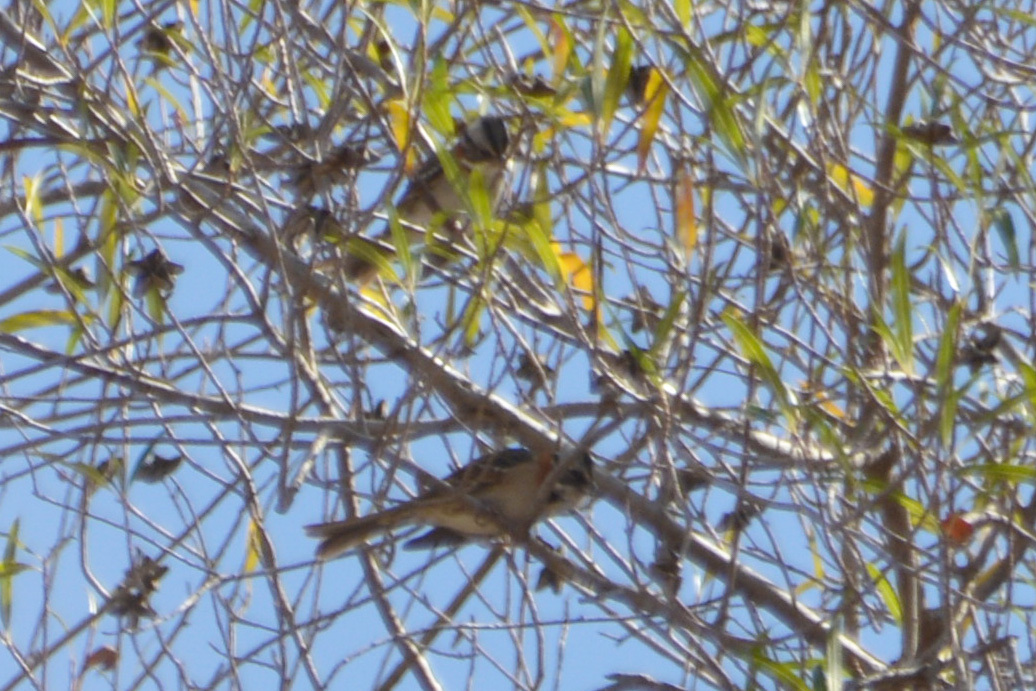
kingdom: Animalia
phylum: Chordata
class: Aves
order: Passeriformes
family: Passerellidae
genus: Zonotrichia
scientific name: Zonotrichia capensis
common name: Rufous-collared sparrow
